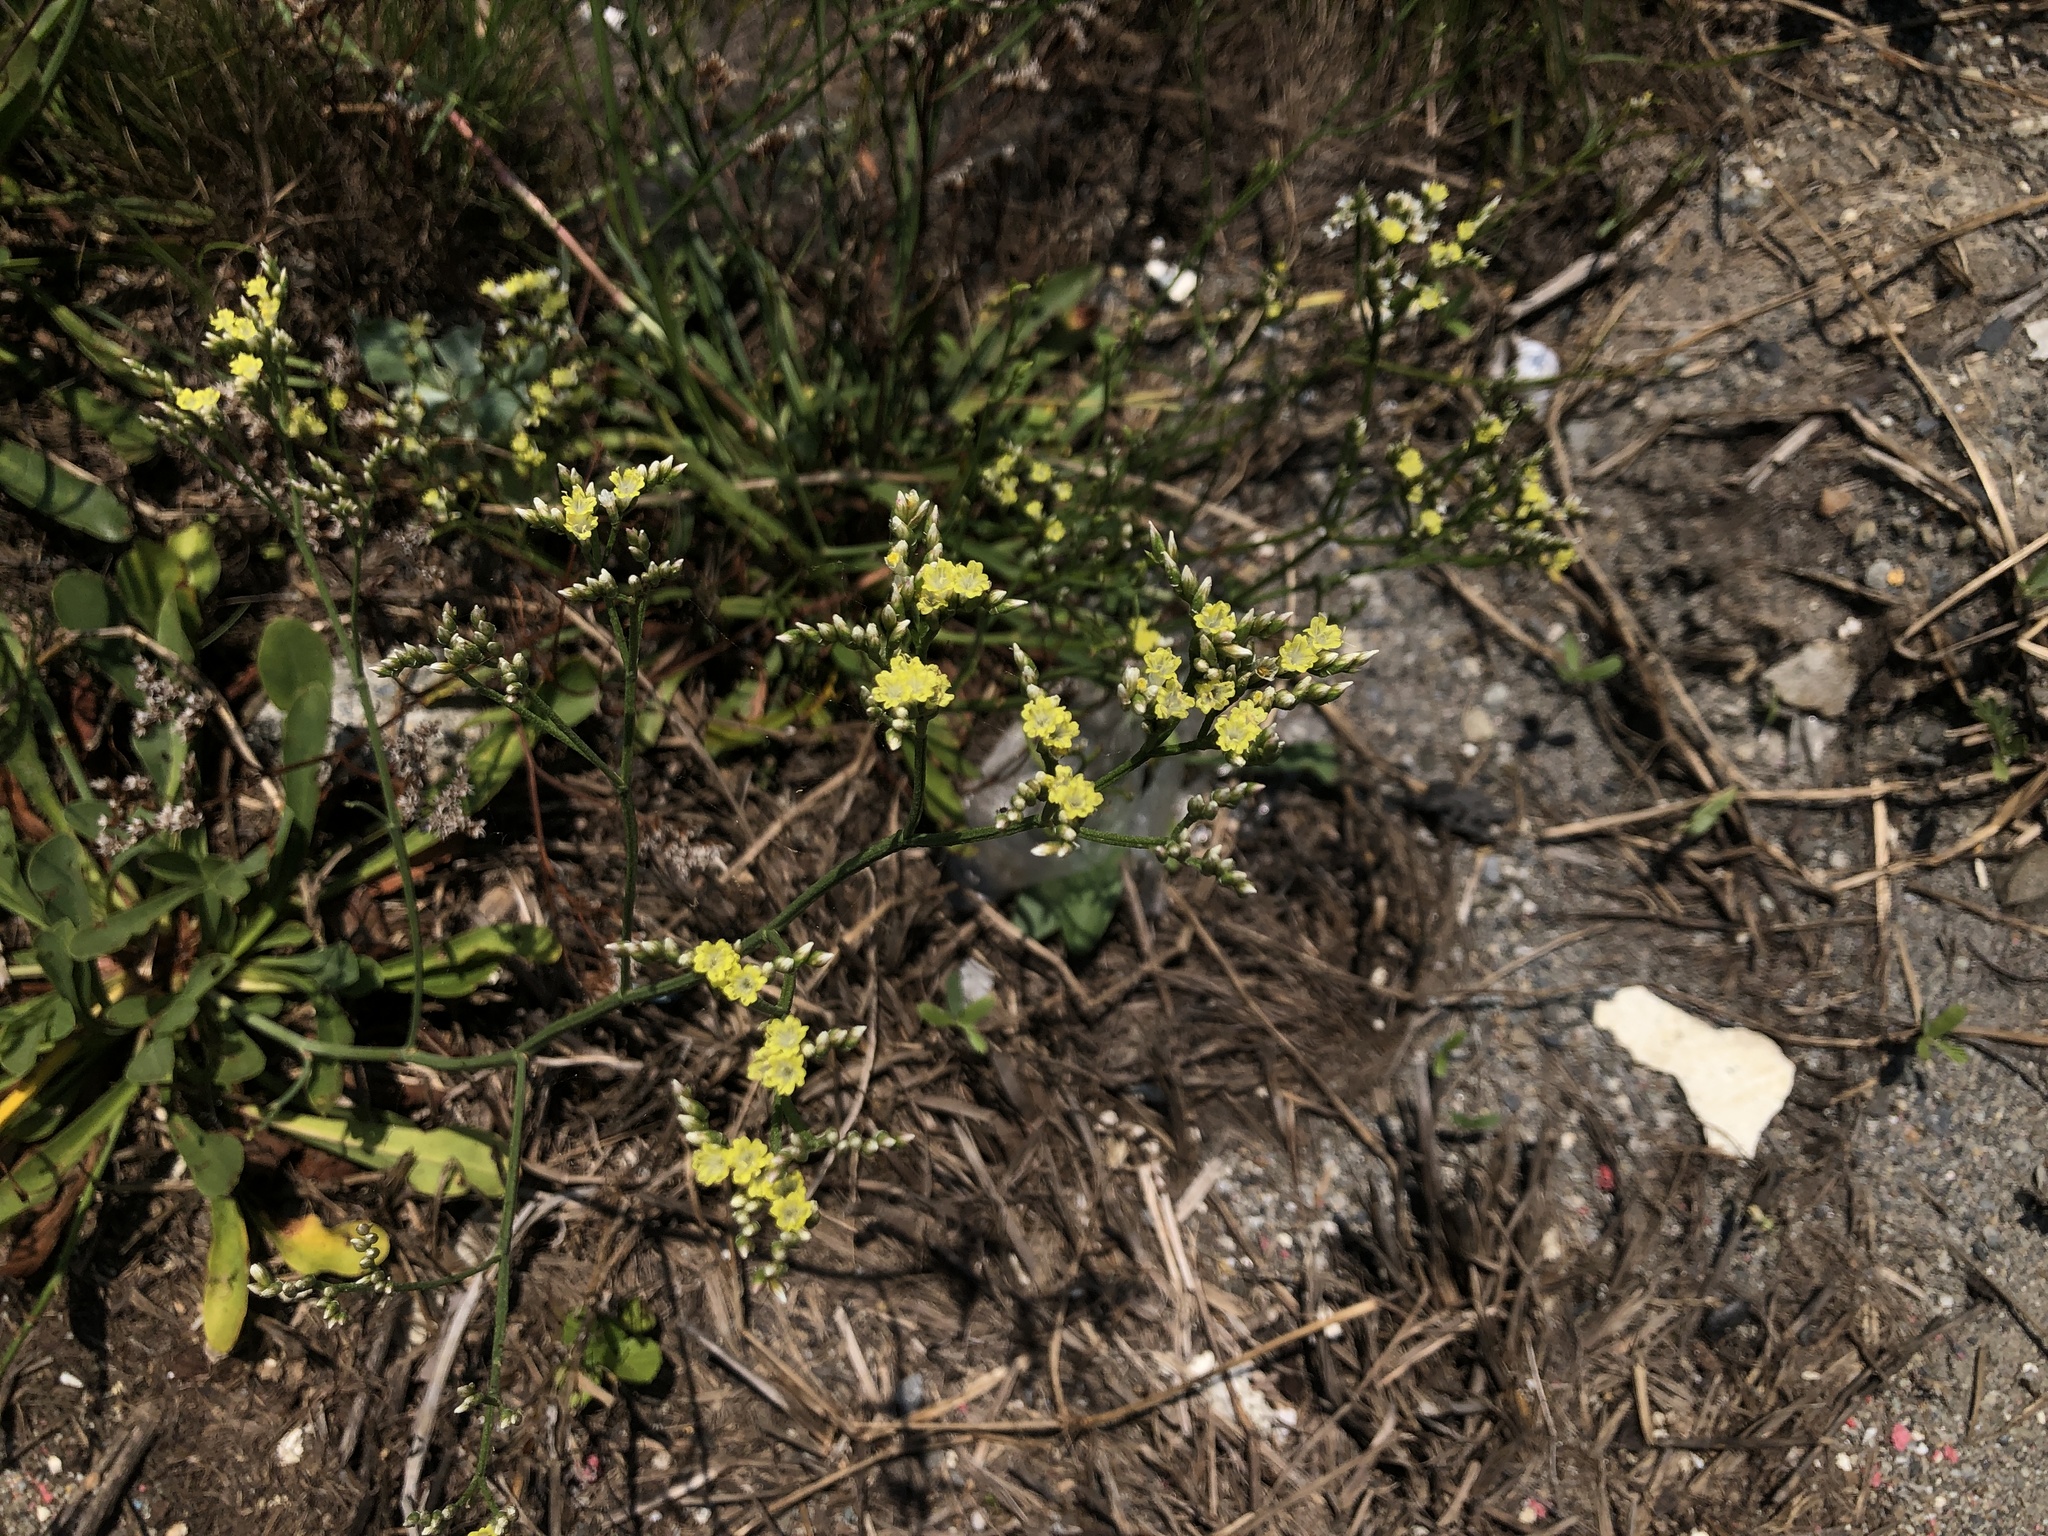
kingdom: Plantae
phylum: Tracheophyta
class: Magnoliopsida
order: Caryophyllales
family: Plumbaginaceae
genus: Limonium
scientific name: Limonium sinense
